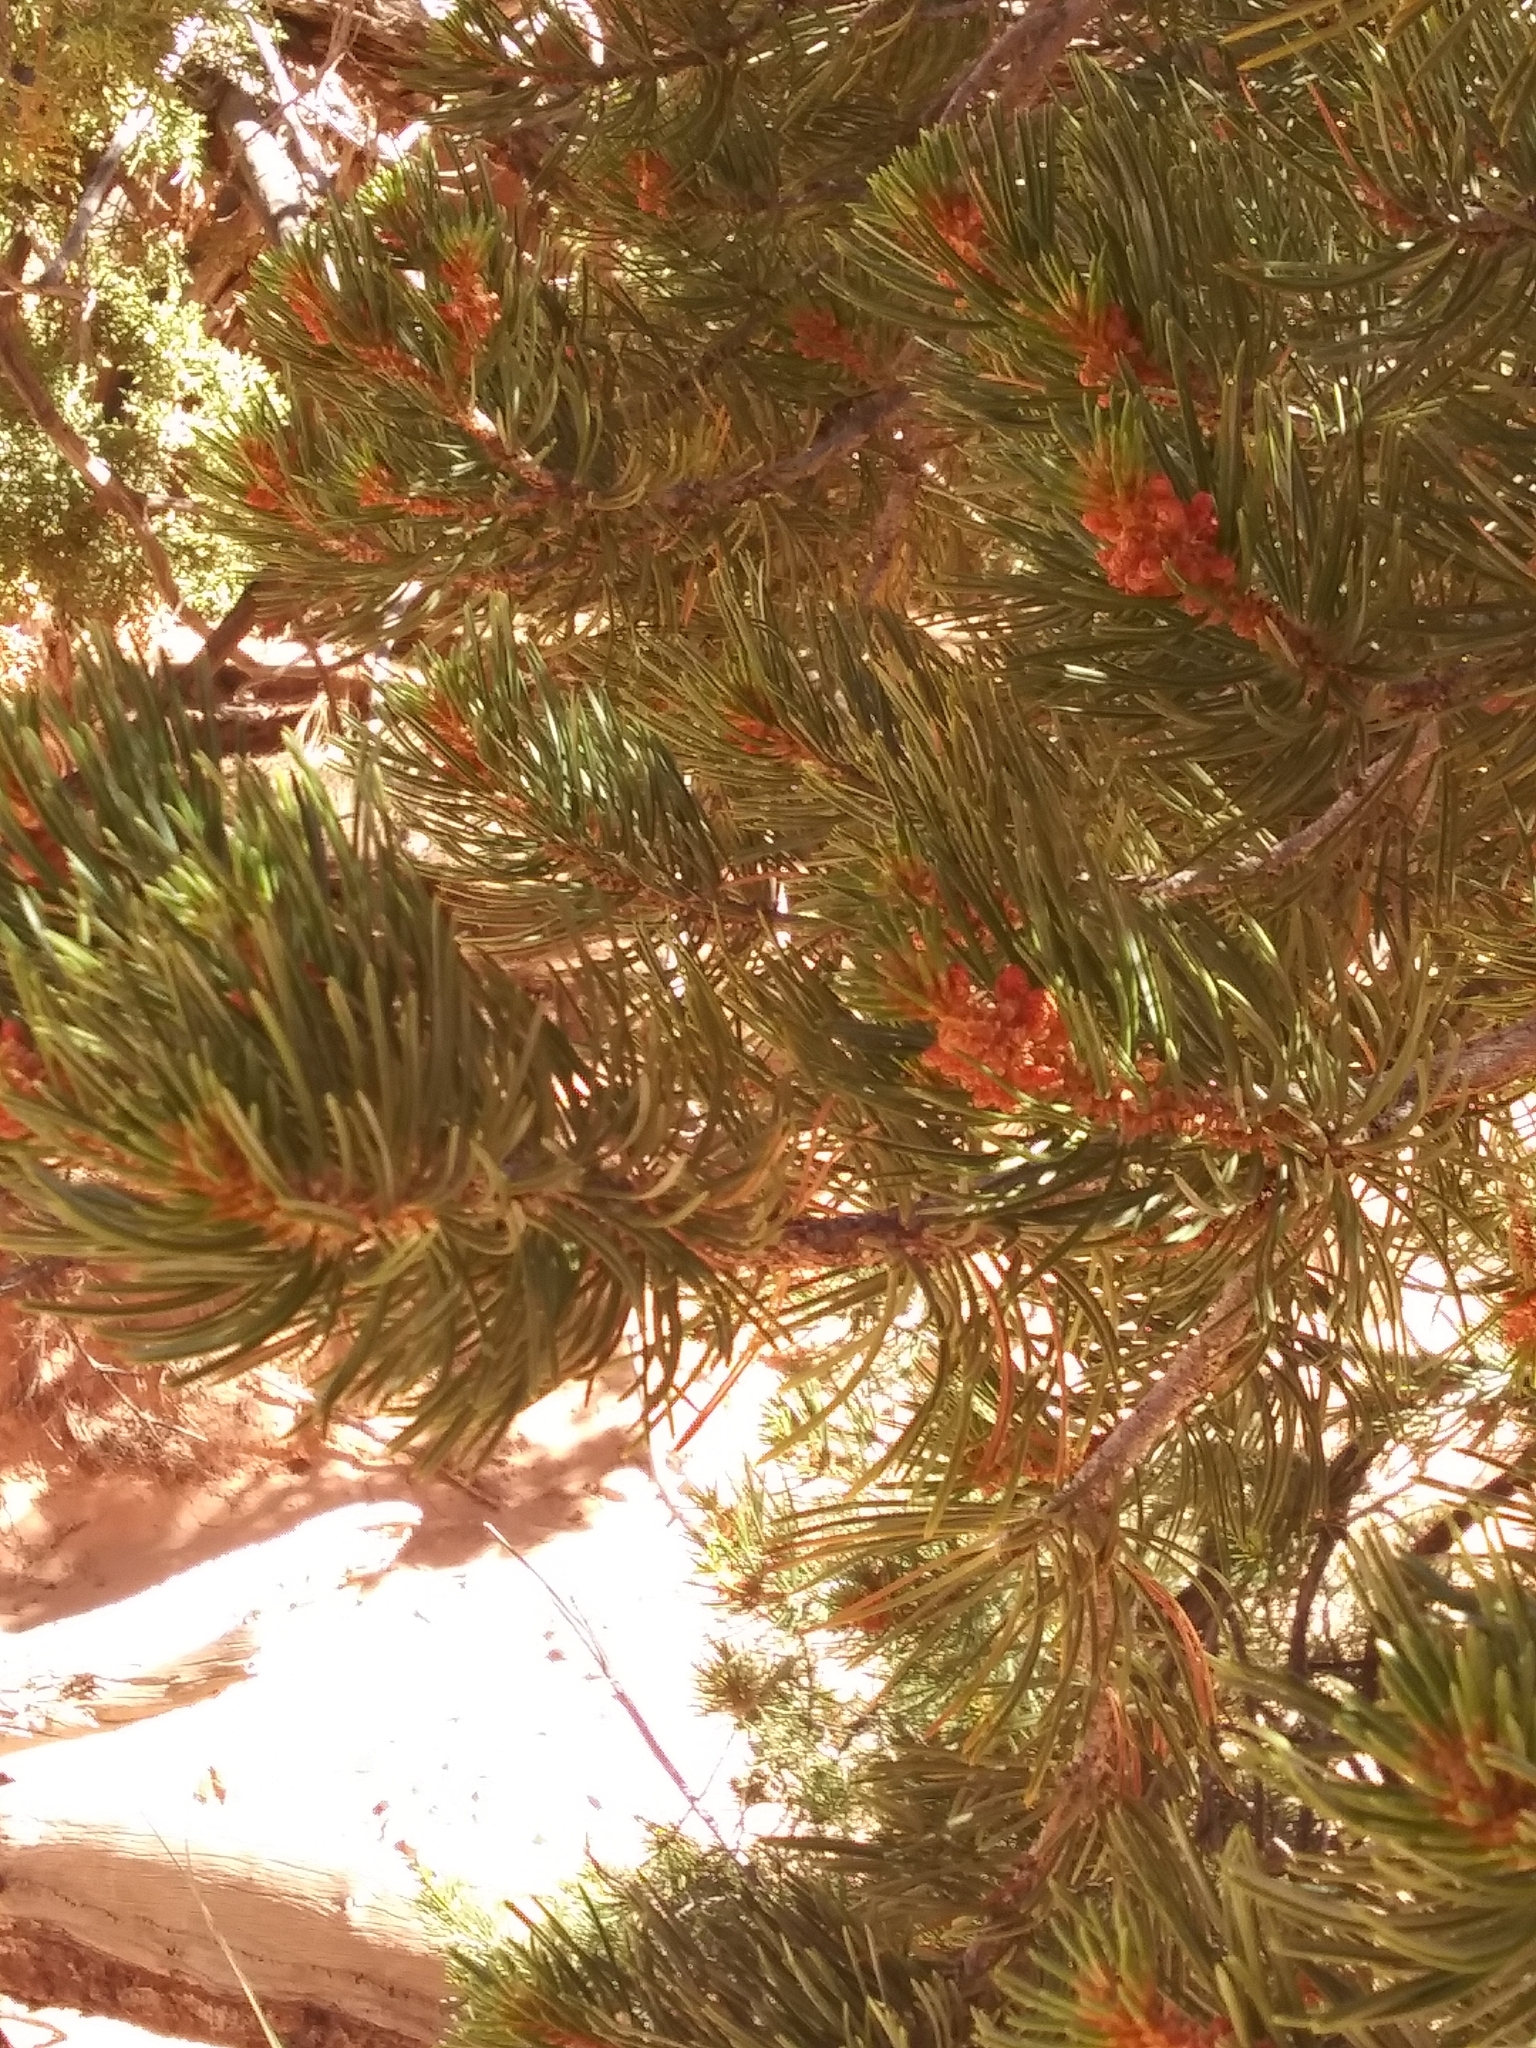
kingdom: Plantae
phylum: Tracheophyta
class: Pinopsida
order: Pinales
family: Pinaceae
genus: Pinus
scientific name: Pinus edulis
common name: Colorado pinyon
